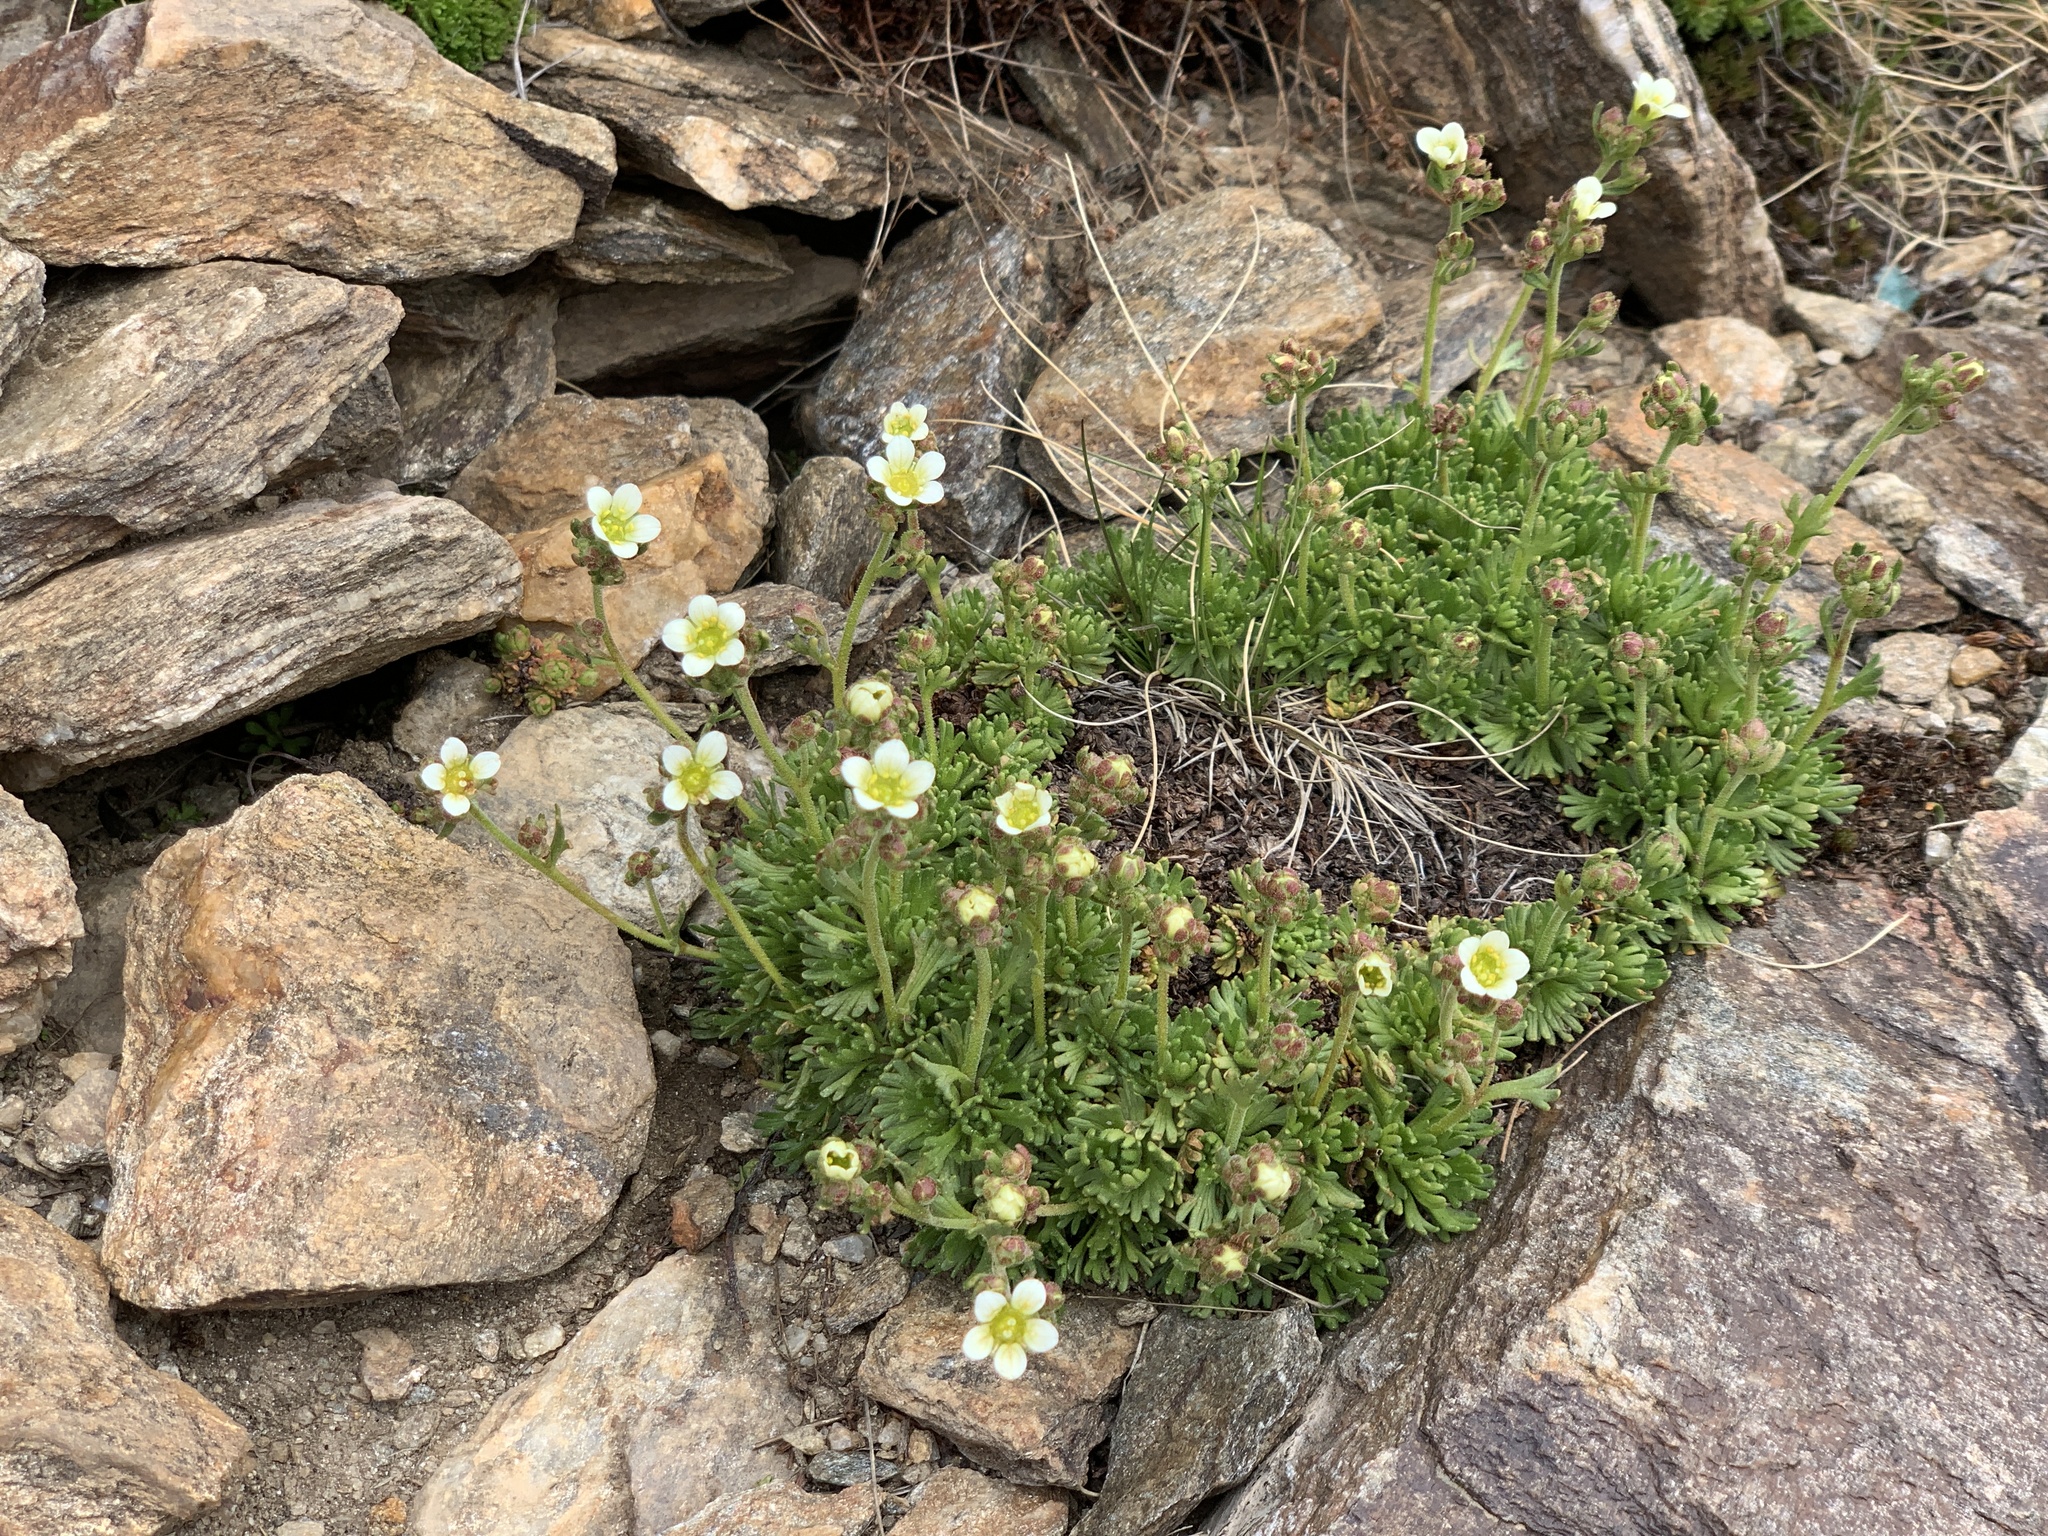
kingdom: Plantae
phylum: Tracheophyta
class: Magnoliopsida
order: Saxifragales
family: Saxifragaceae
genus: Saxifraga
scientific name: Saxifraga exarata
